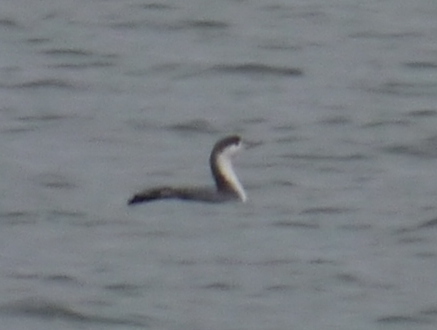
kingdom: Animalia
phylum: Chordata
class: Aves
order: Gaviiformes
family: Gaviidae
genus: Gavia
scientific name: Gavia stellata
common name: Red-throated loon
